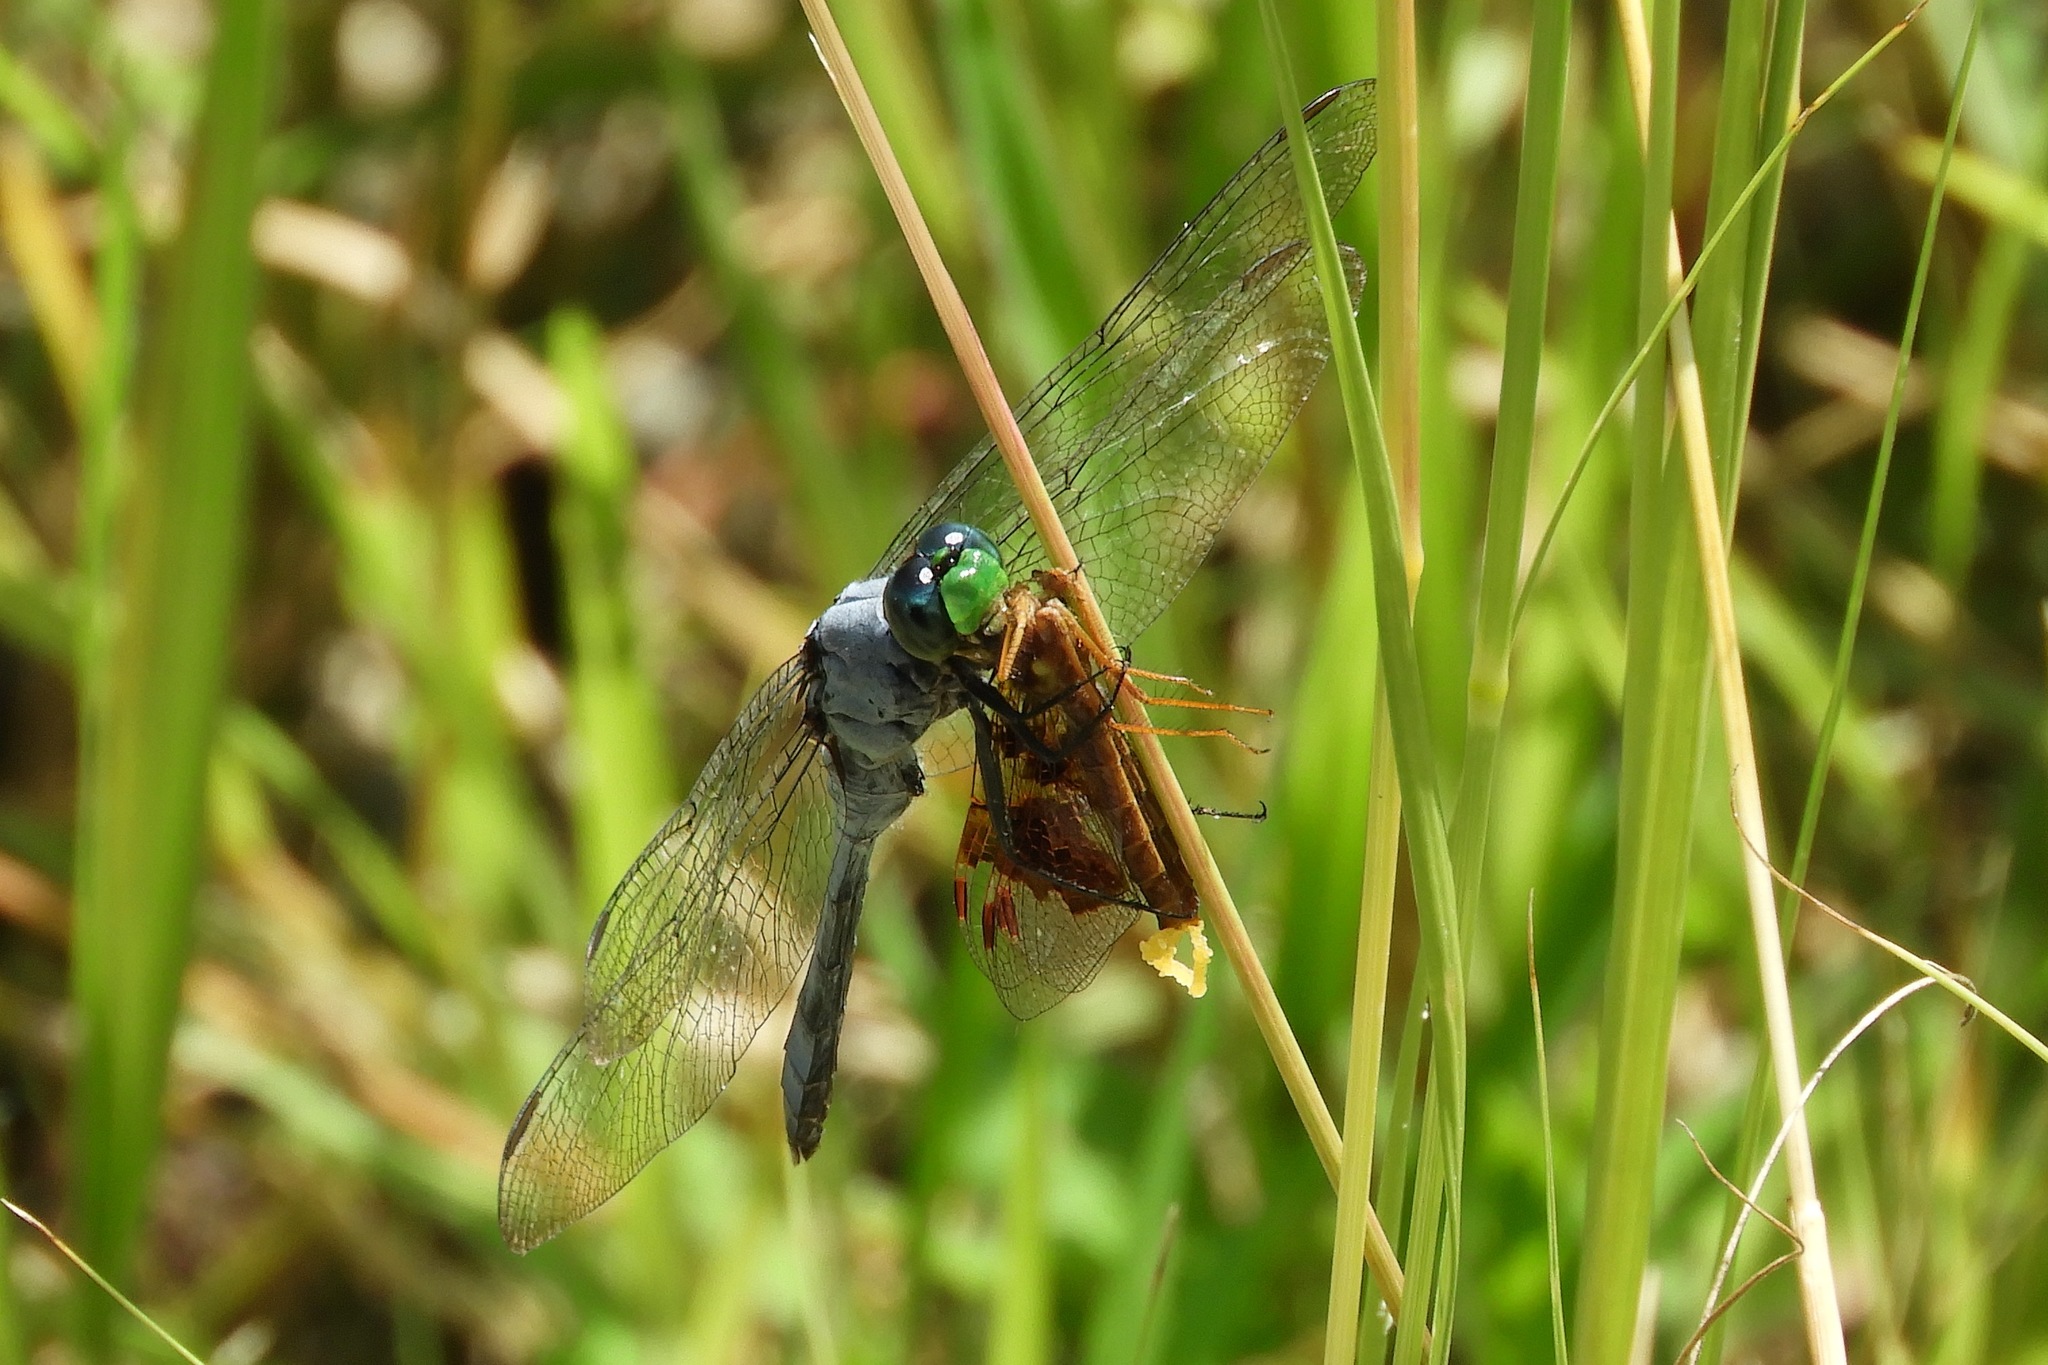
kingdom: Animalia
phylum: Arthropoda
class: Insecta
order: Odonata
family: Libellulidae
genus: Erythemis
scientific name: Erythemis simplicicollis
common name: Eastern pondhawk
